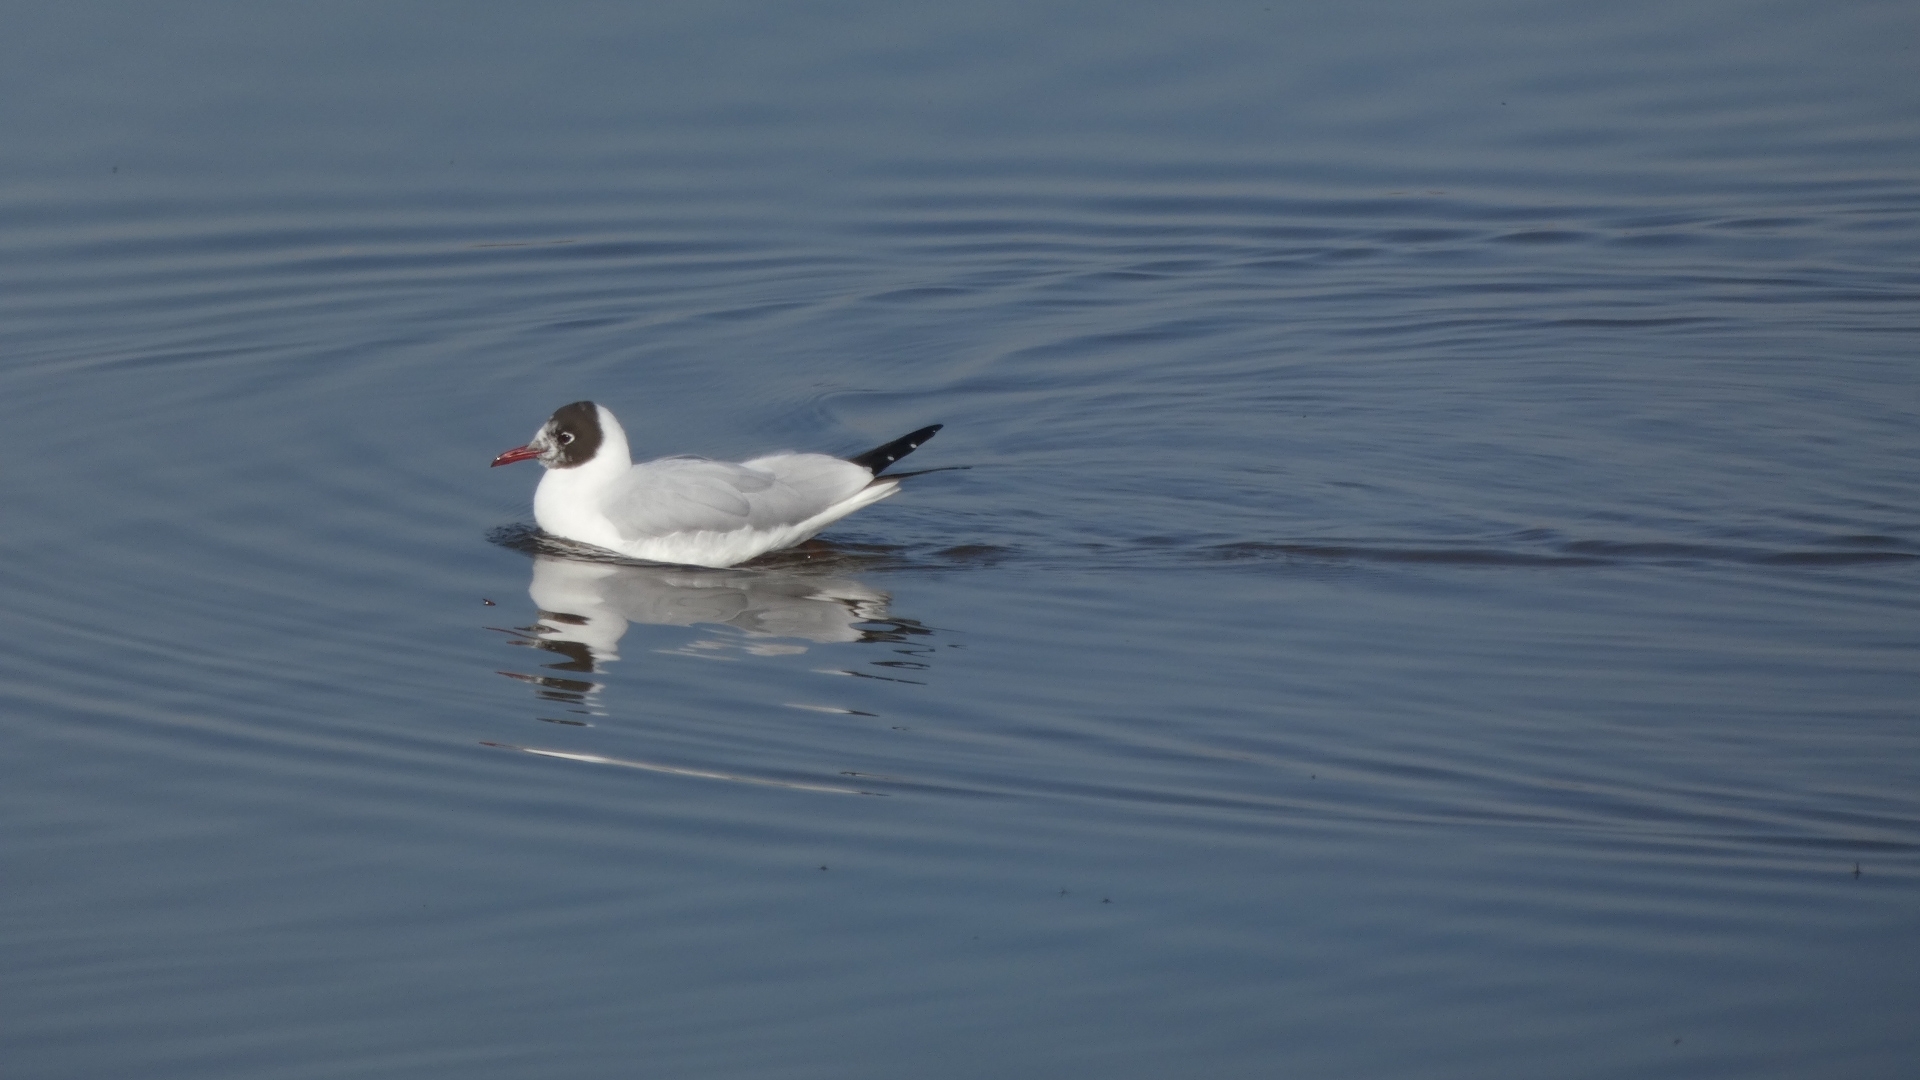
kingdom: Animalia
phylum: Chordata
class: Aves
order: Charadriiformes
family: Laridae
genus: Chroicocephalus
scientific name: Chroicocephalus ridibundus
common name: Black-headed gull
